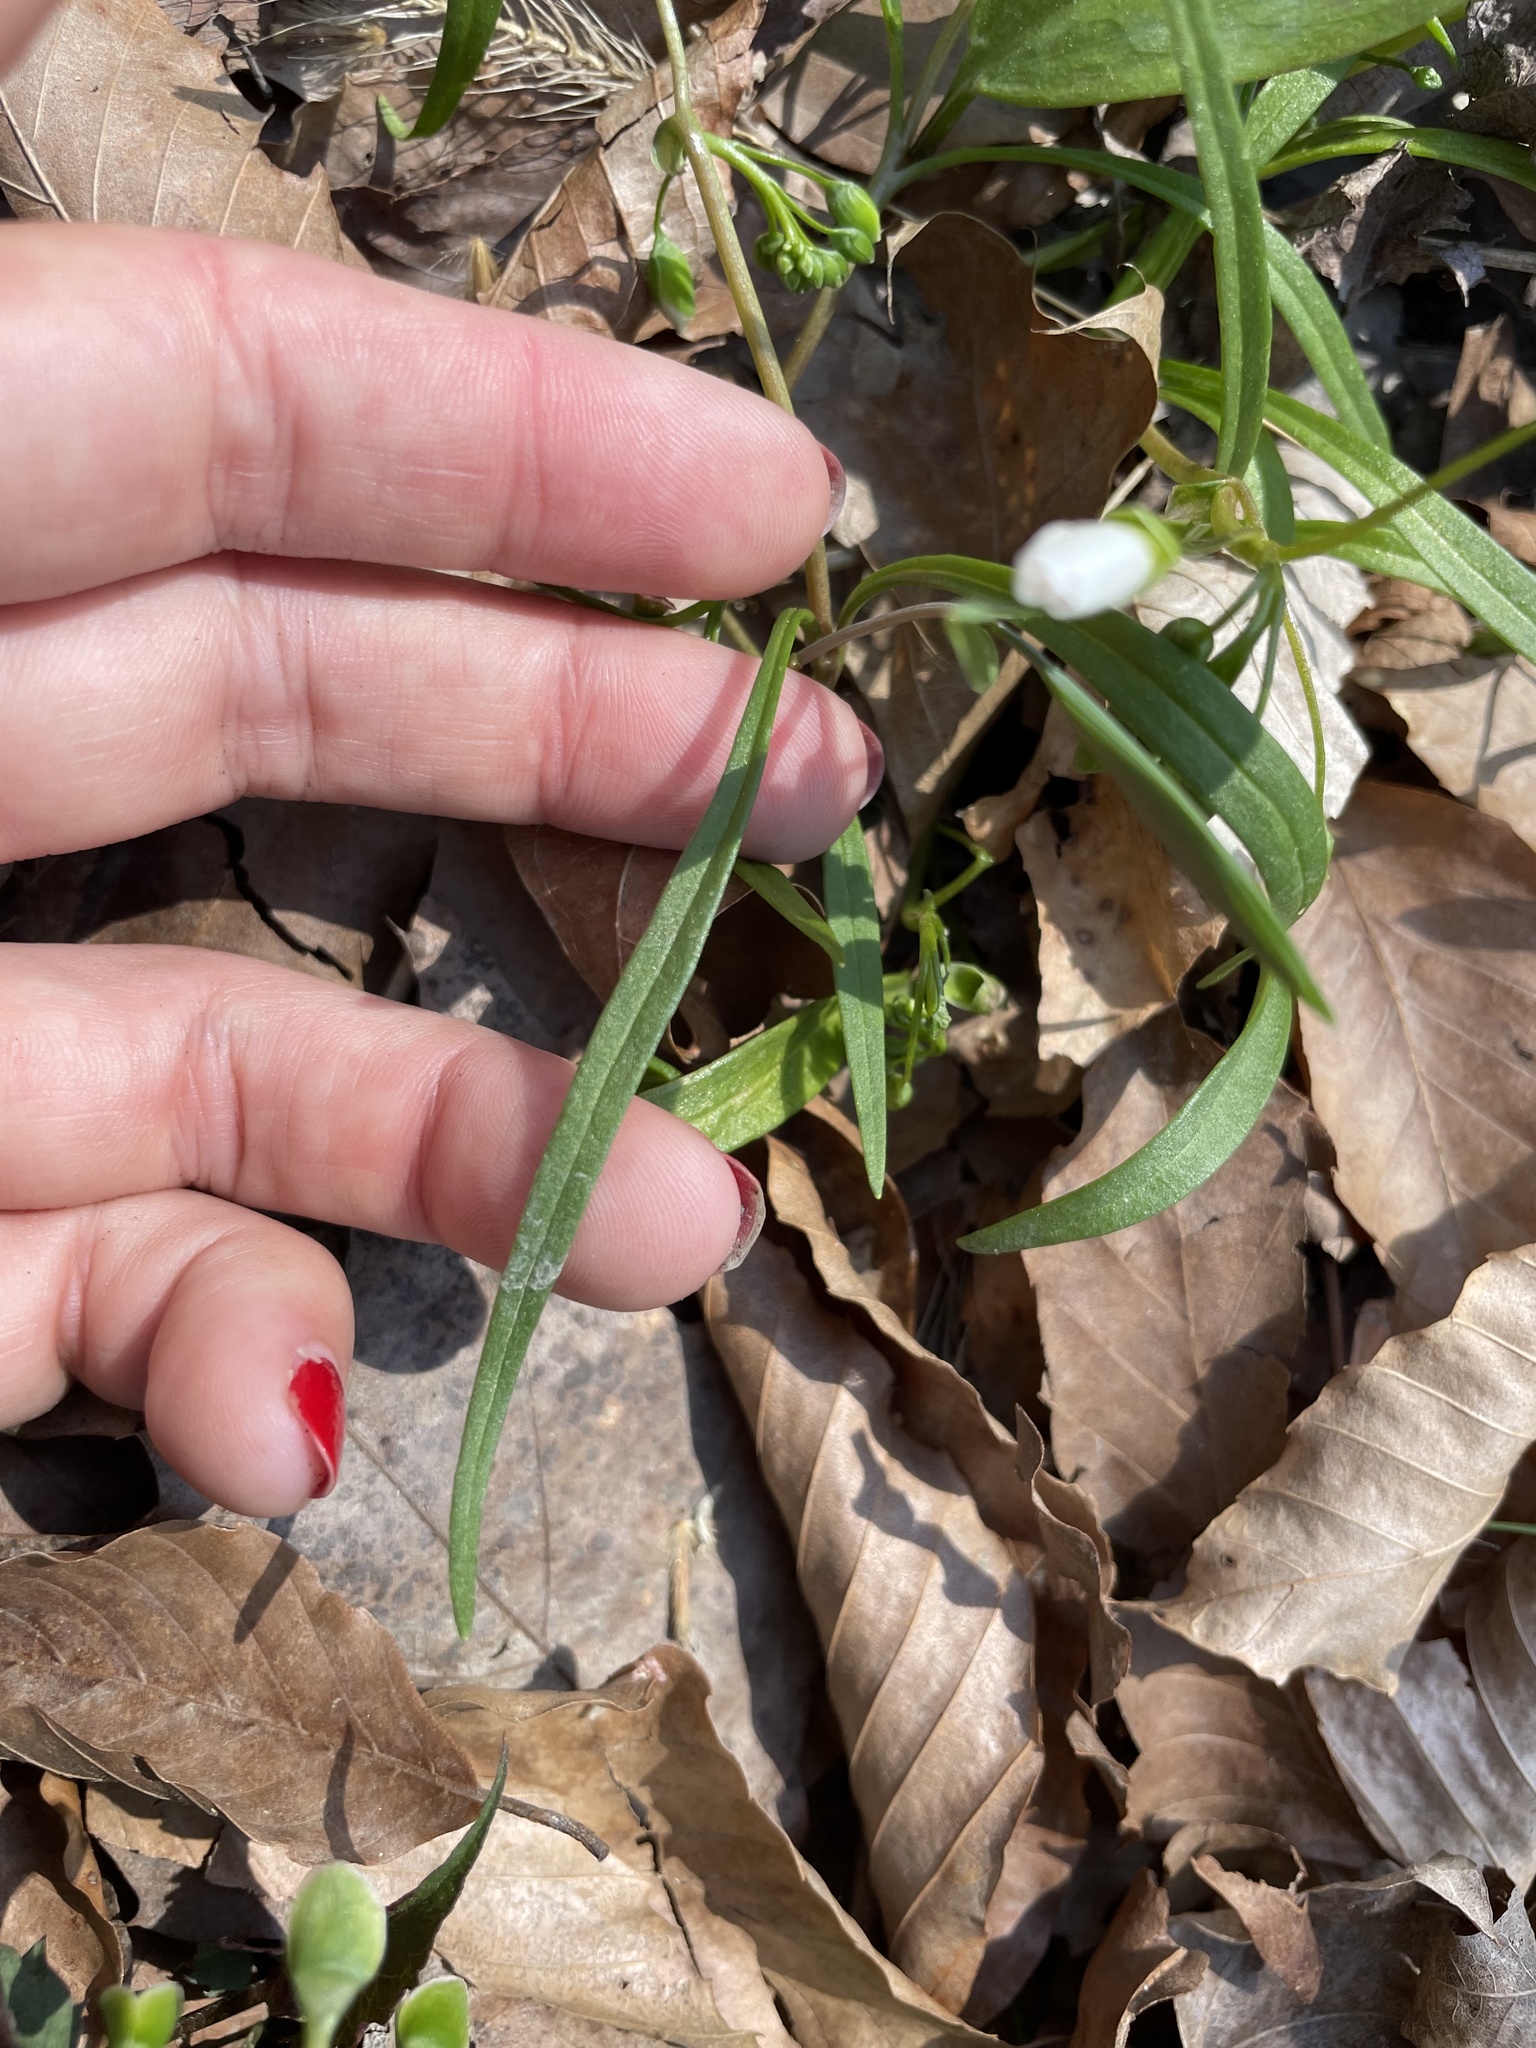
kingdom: Plantae
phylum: Tracheophyta
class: Magnoliopsida
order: Caryophyllales
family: Montiaceae
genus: Claytonia
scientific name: Claytonia virginica
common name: Virginia springbeauty
